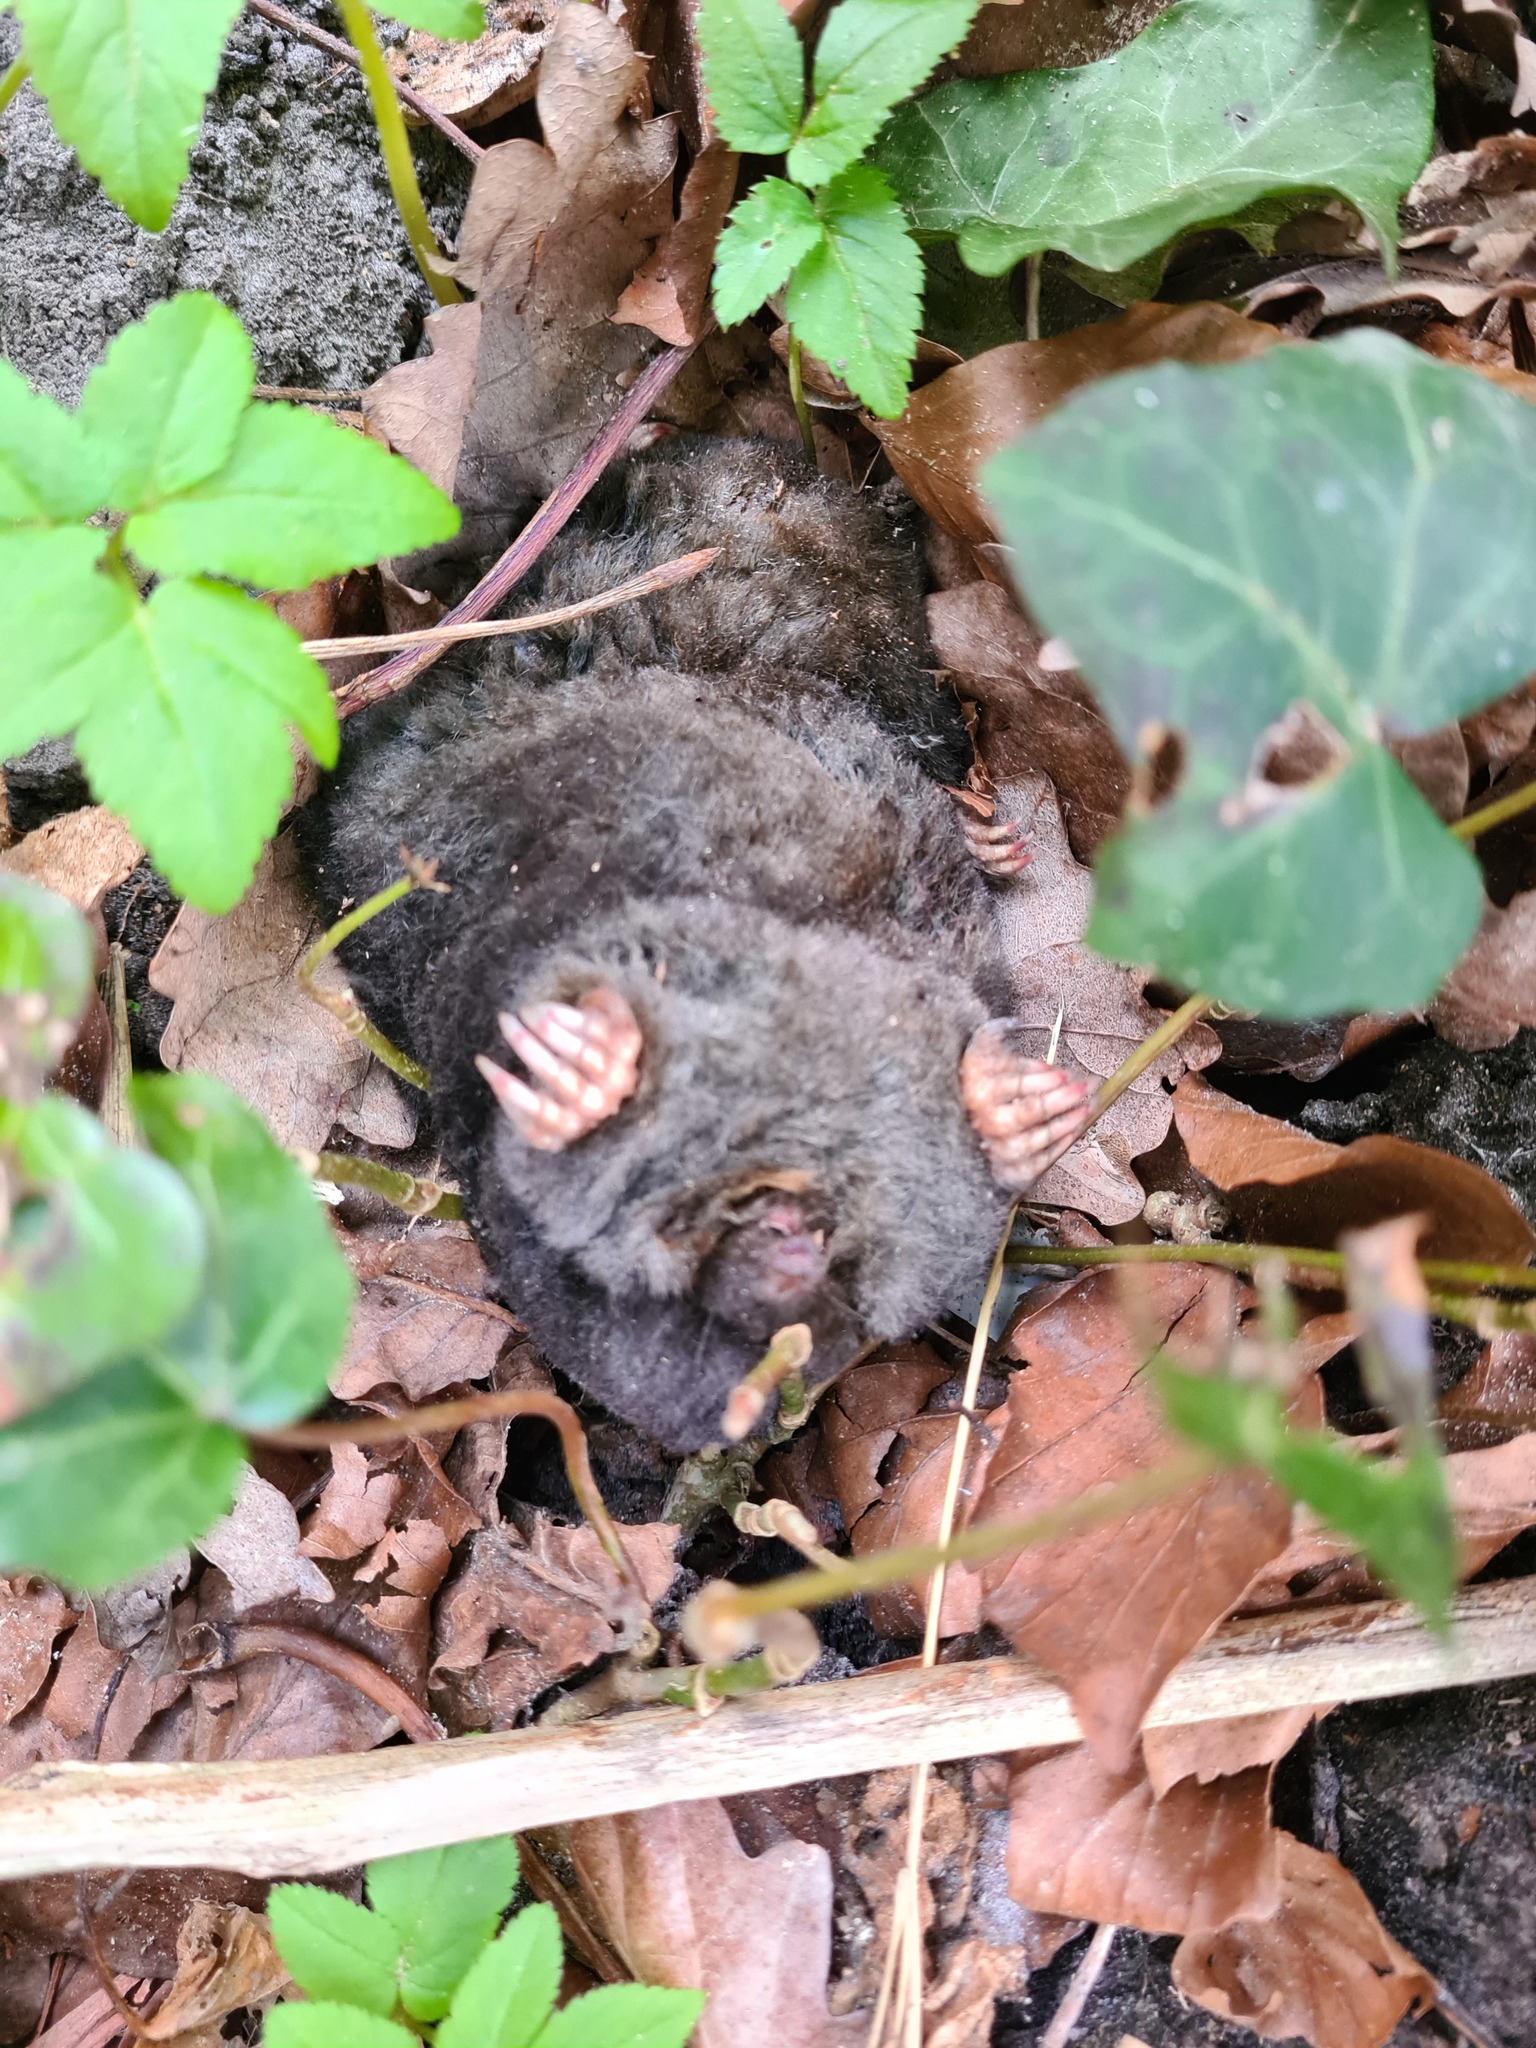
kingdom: Animalia
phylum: Chordata
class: Mammalia
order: Soricomorpha
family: Talpidae
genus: Talpa
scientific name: Talpa europaea
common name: European mole
